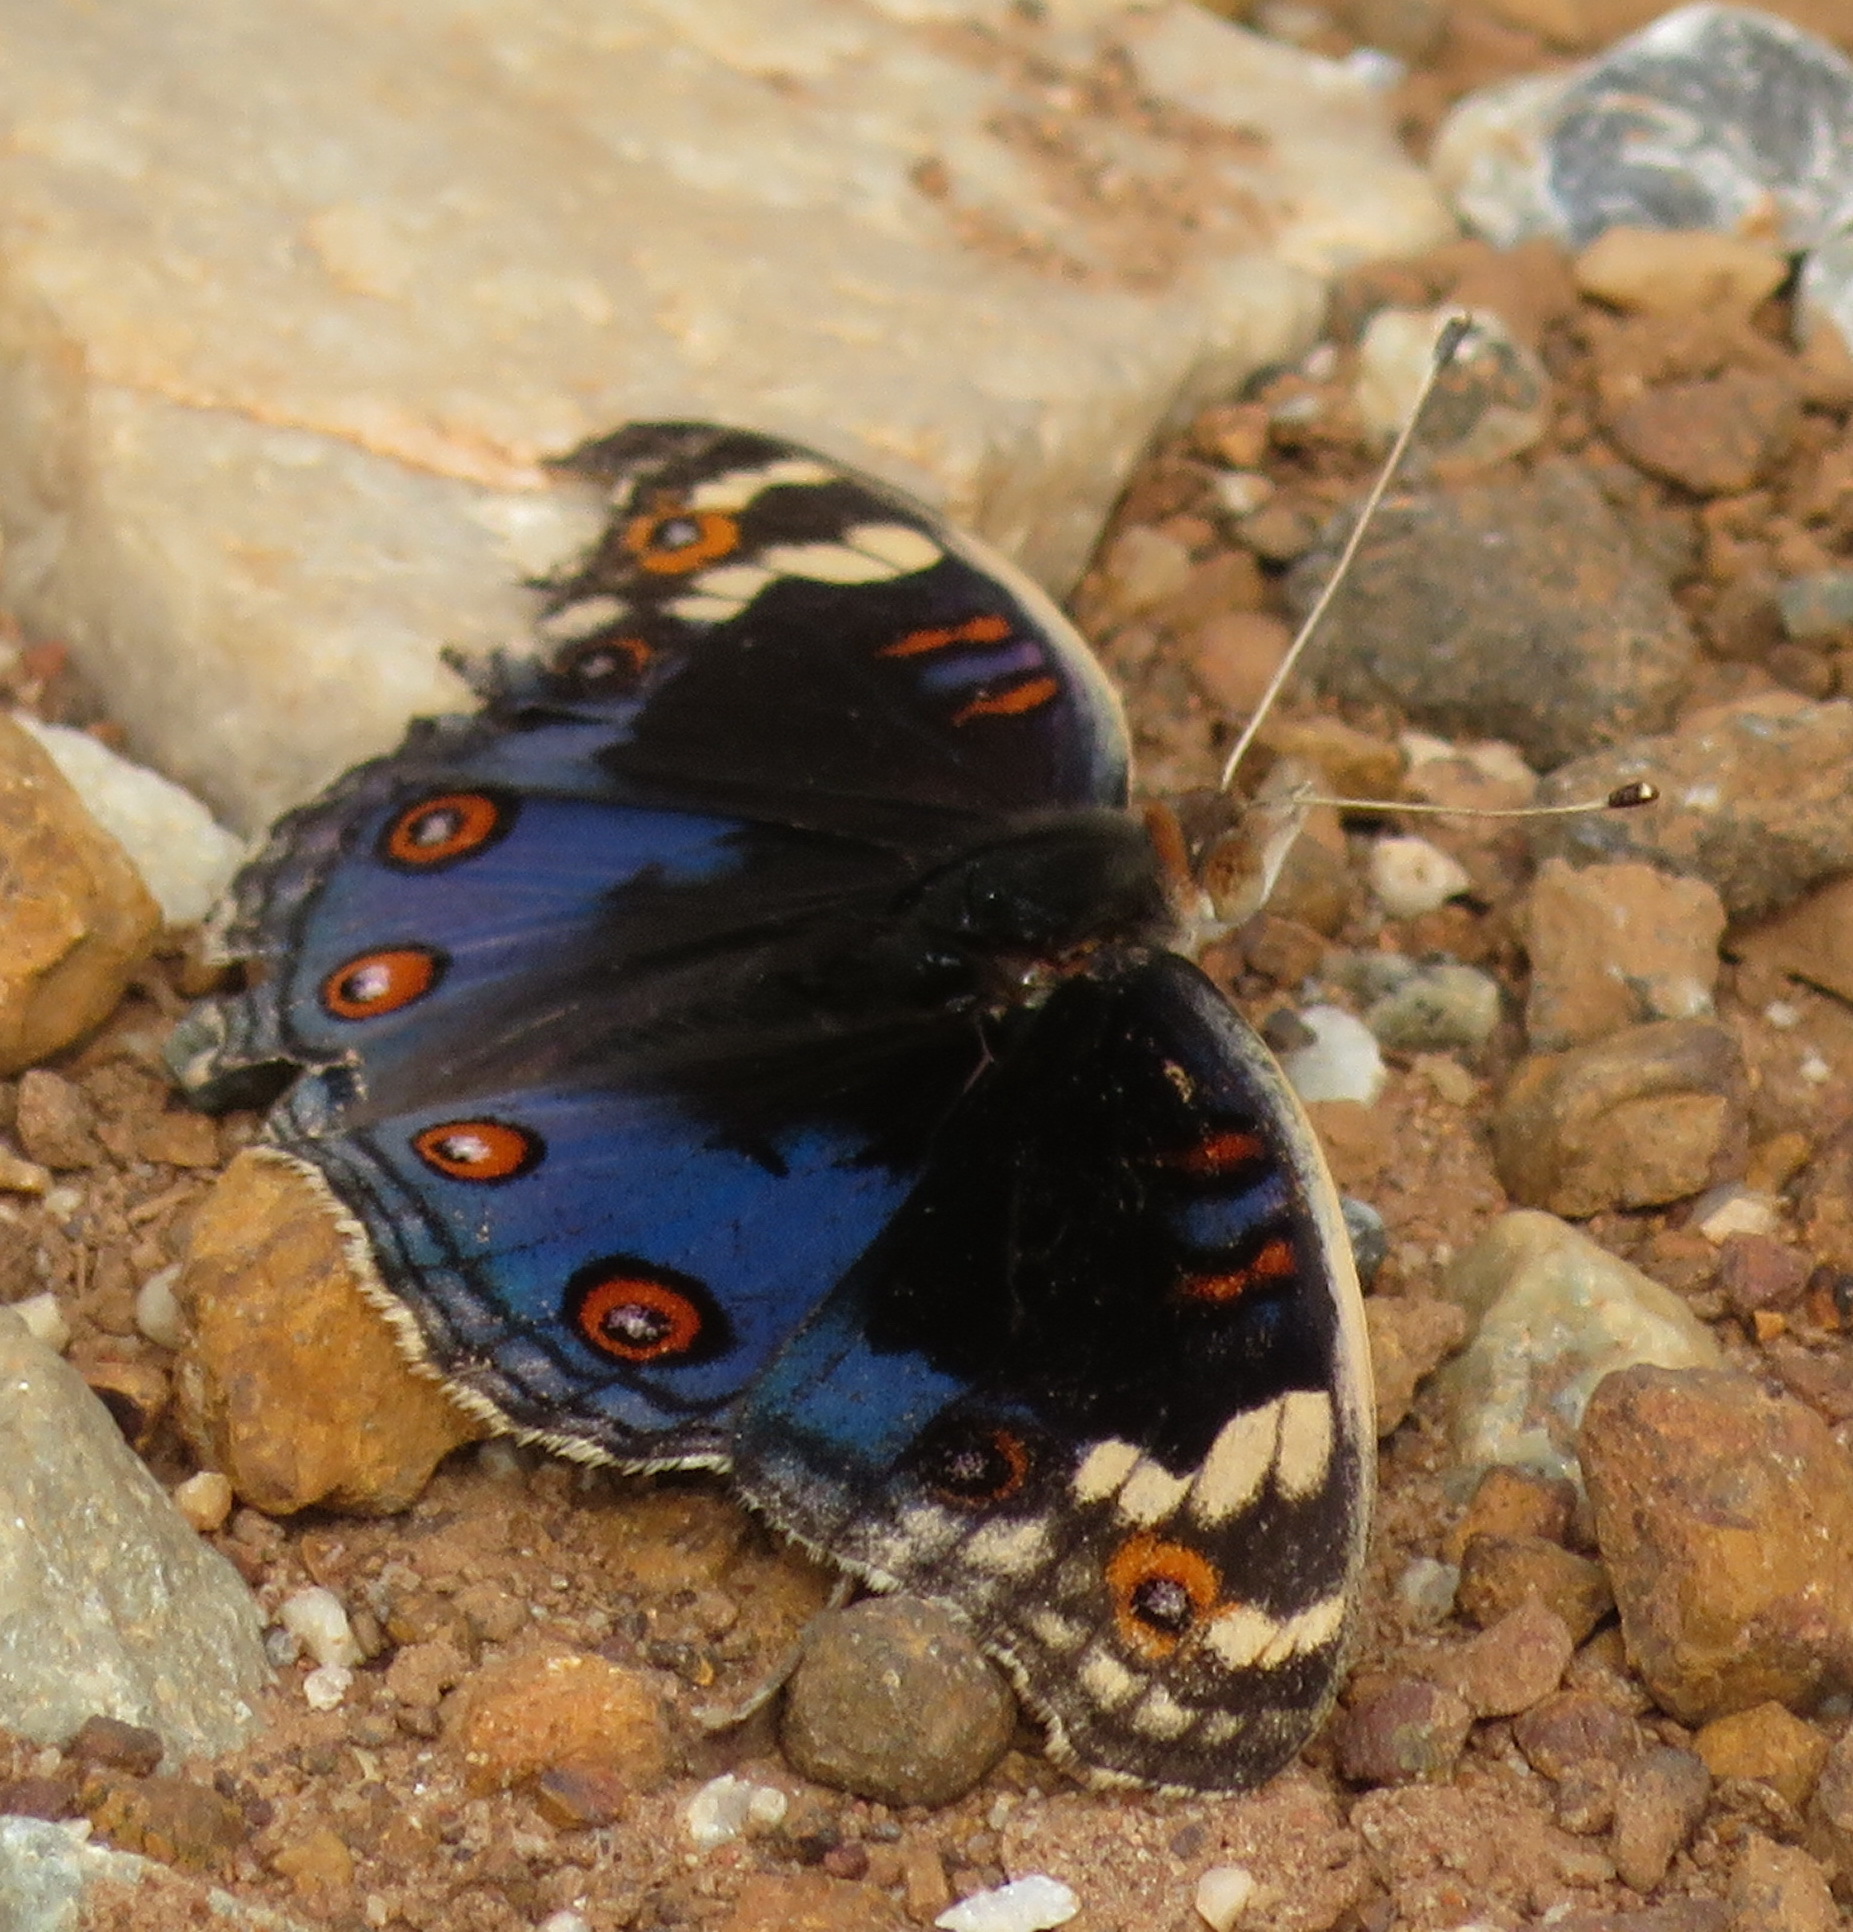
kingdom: Animalia
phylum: Arthropoda
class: Insecta
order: Lepidoptera
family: Nymphalidae
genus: Junonia
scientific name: Junonia orithya
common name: Blue pansy
